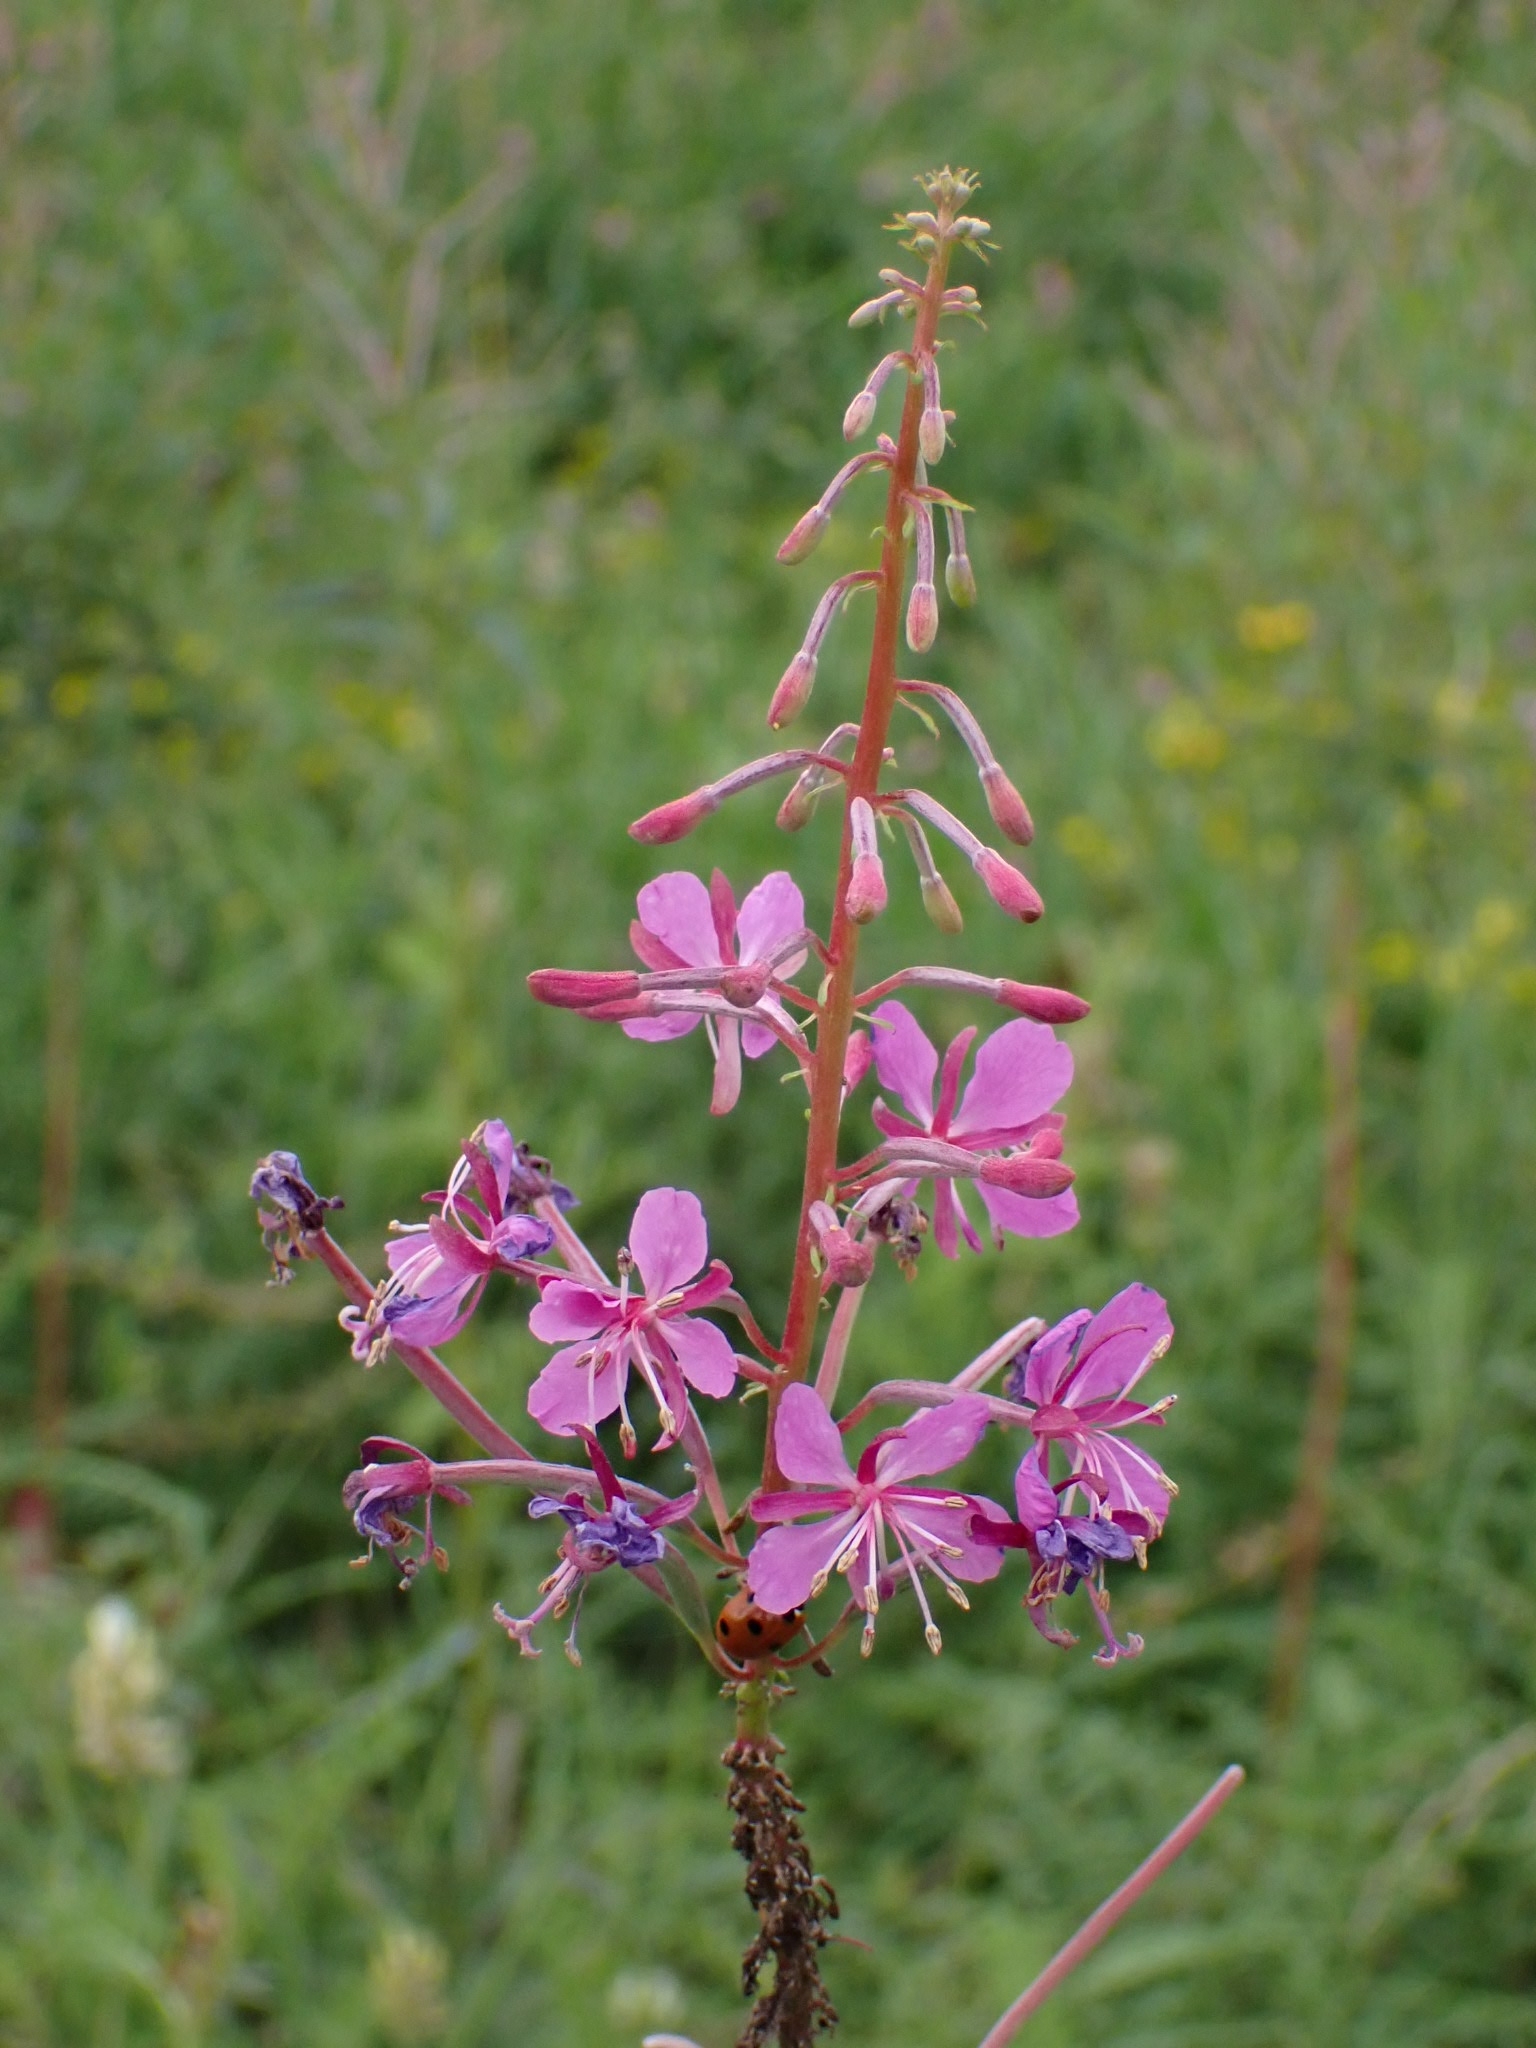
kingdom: Plantae
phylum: Tracheophyta
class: Magnoliopsida
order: Myrtales
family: Onagraceae
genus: Chamaenerion
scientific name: Chamaenerion angustifolium
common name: Fireweed
